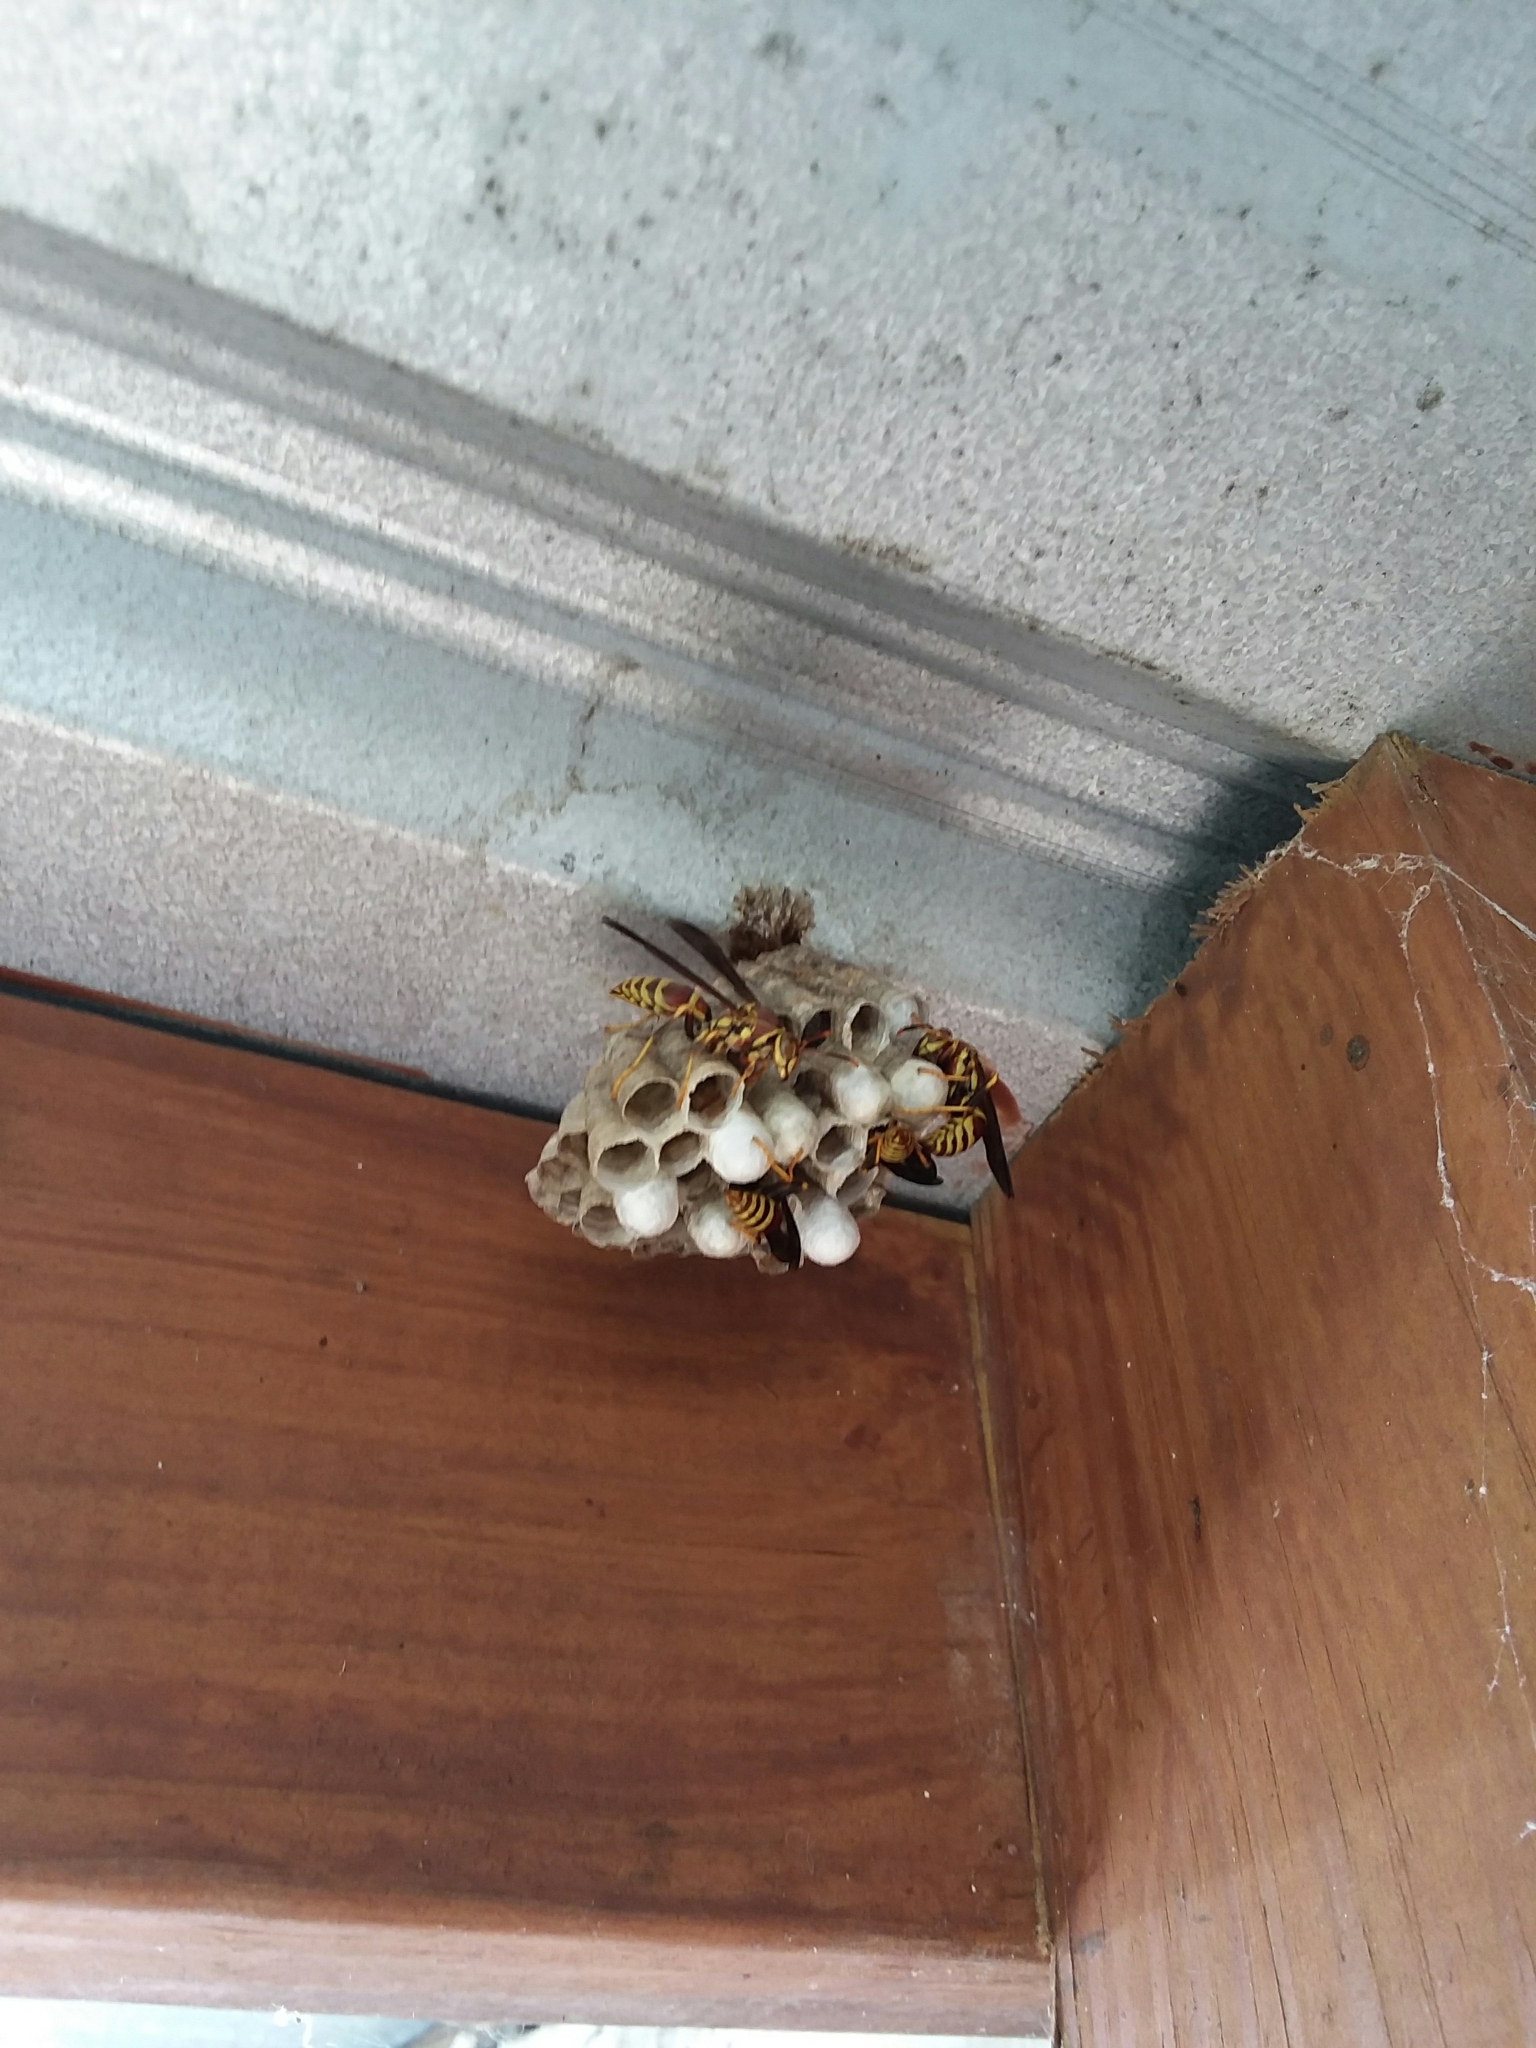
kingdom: Animalia
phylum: Arthropoda
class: Insecta
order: Hymenoptera
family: Eumenidae
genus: Polistes
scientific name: Polistes exclamans
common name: Paper wasp
